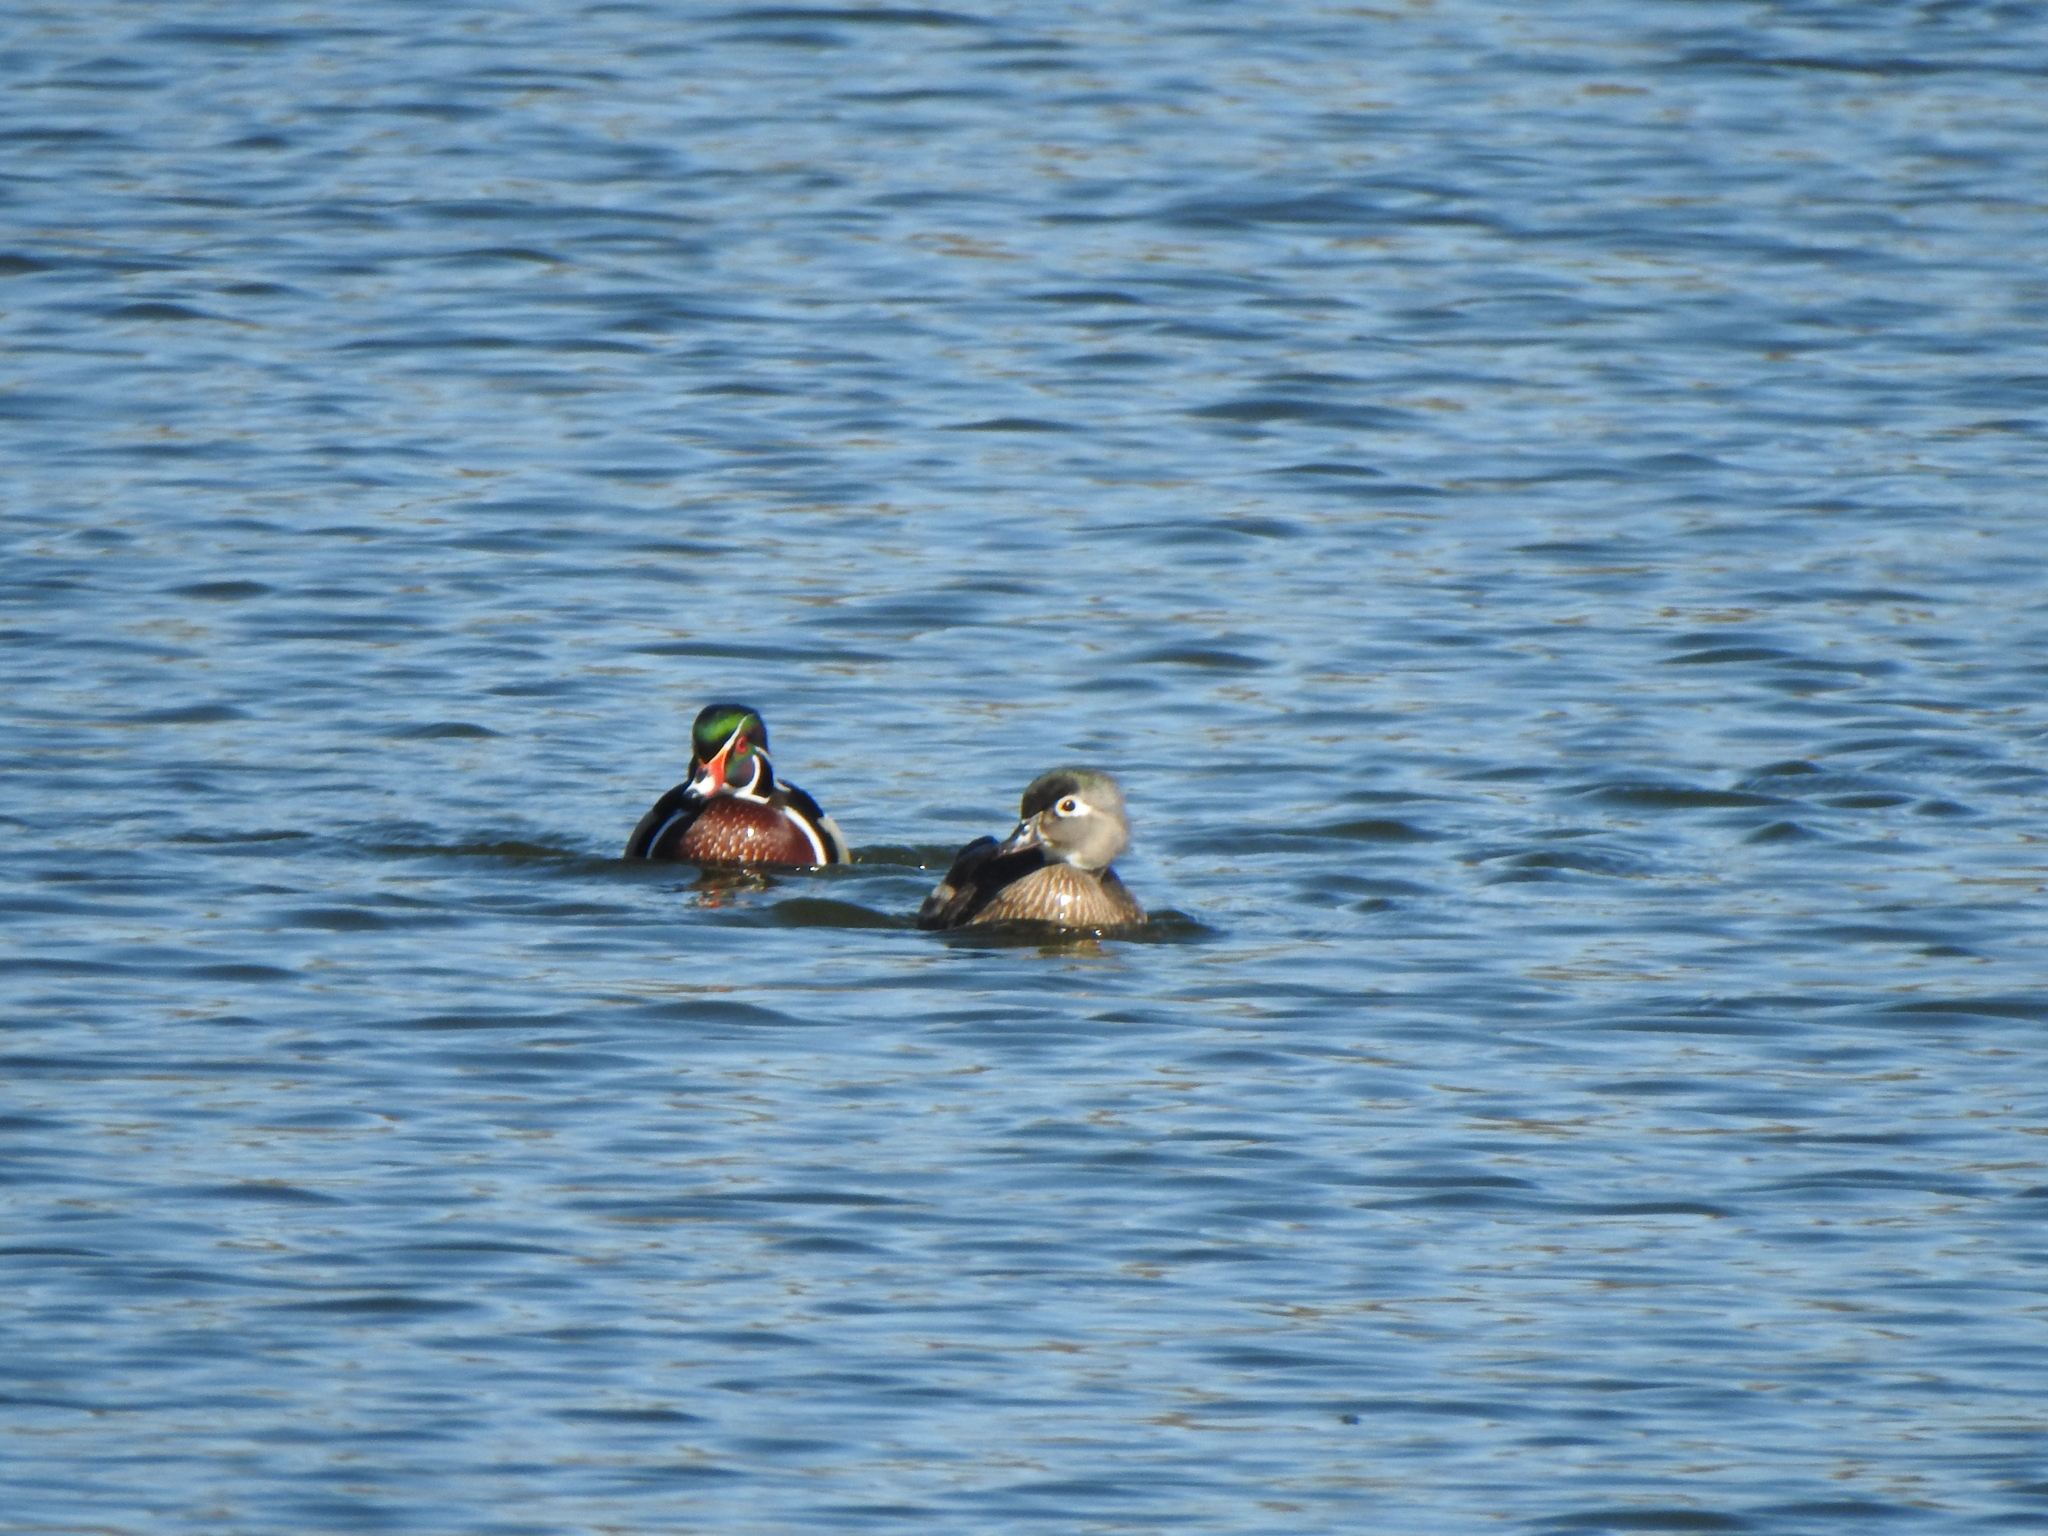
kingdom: Animalia
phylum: Chordata
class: Aves
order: Anseriformes
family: Anatidae
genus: Aix
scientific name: Aix sponsa
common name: Wood duck
